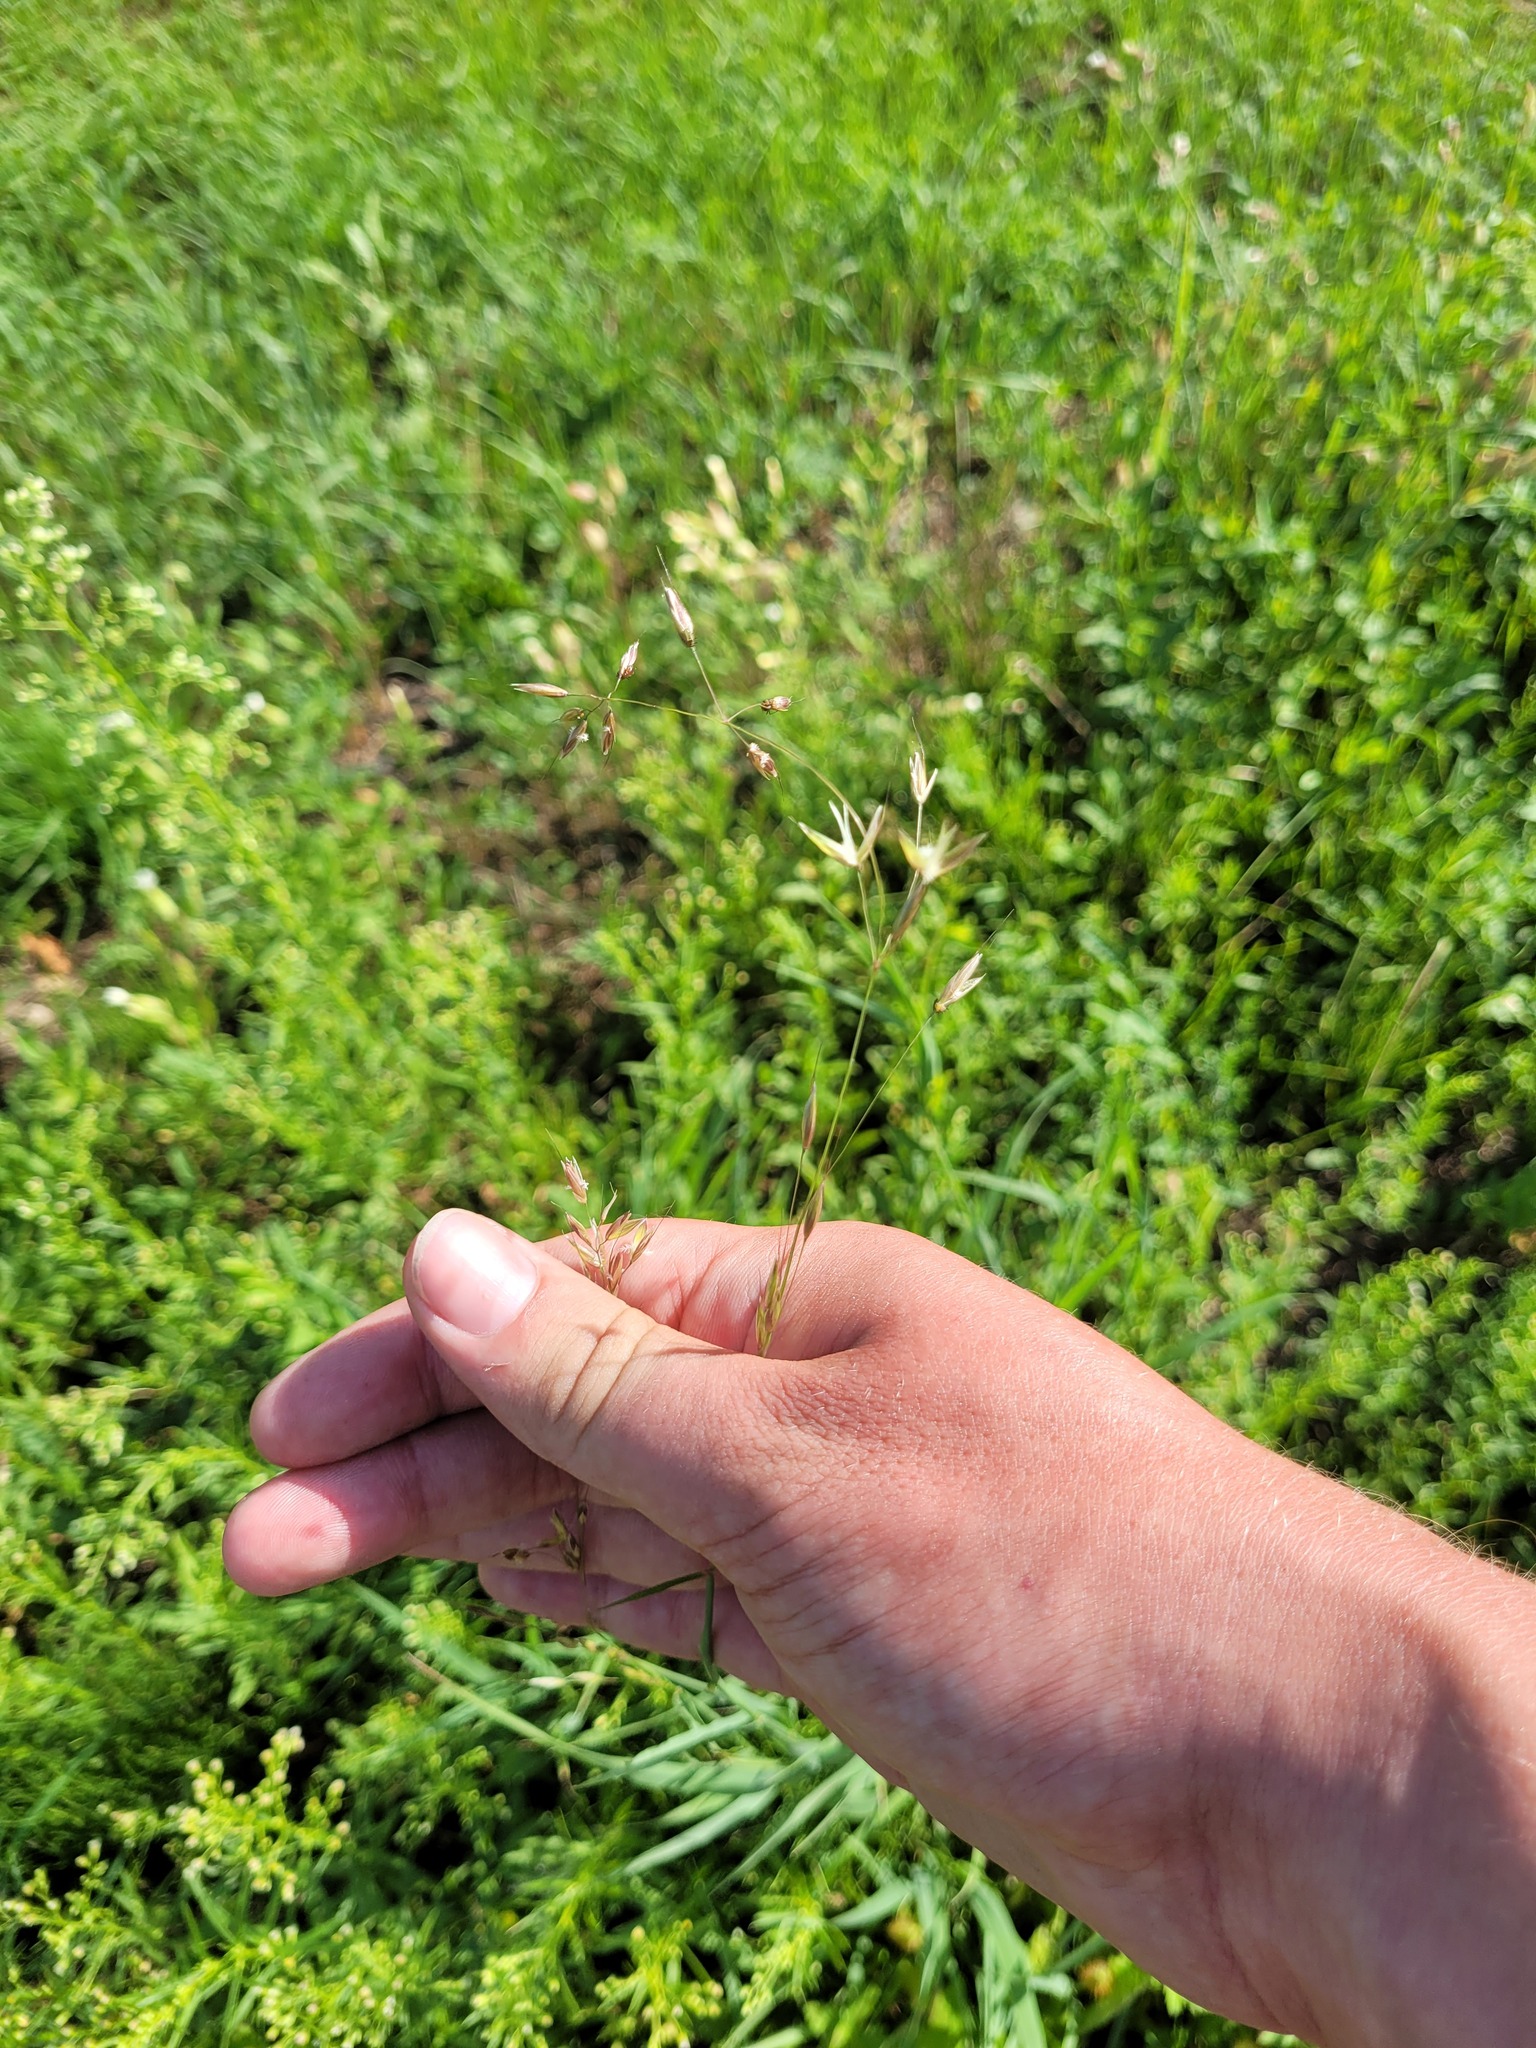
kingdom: Plantae
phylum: Tracheophyta
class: Liliopsida
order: Poales
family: Poaceae
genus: Arrhenatherum
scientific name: Arrhenatherum elatius
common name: Tall oatgrass
